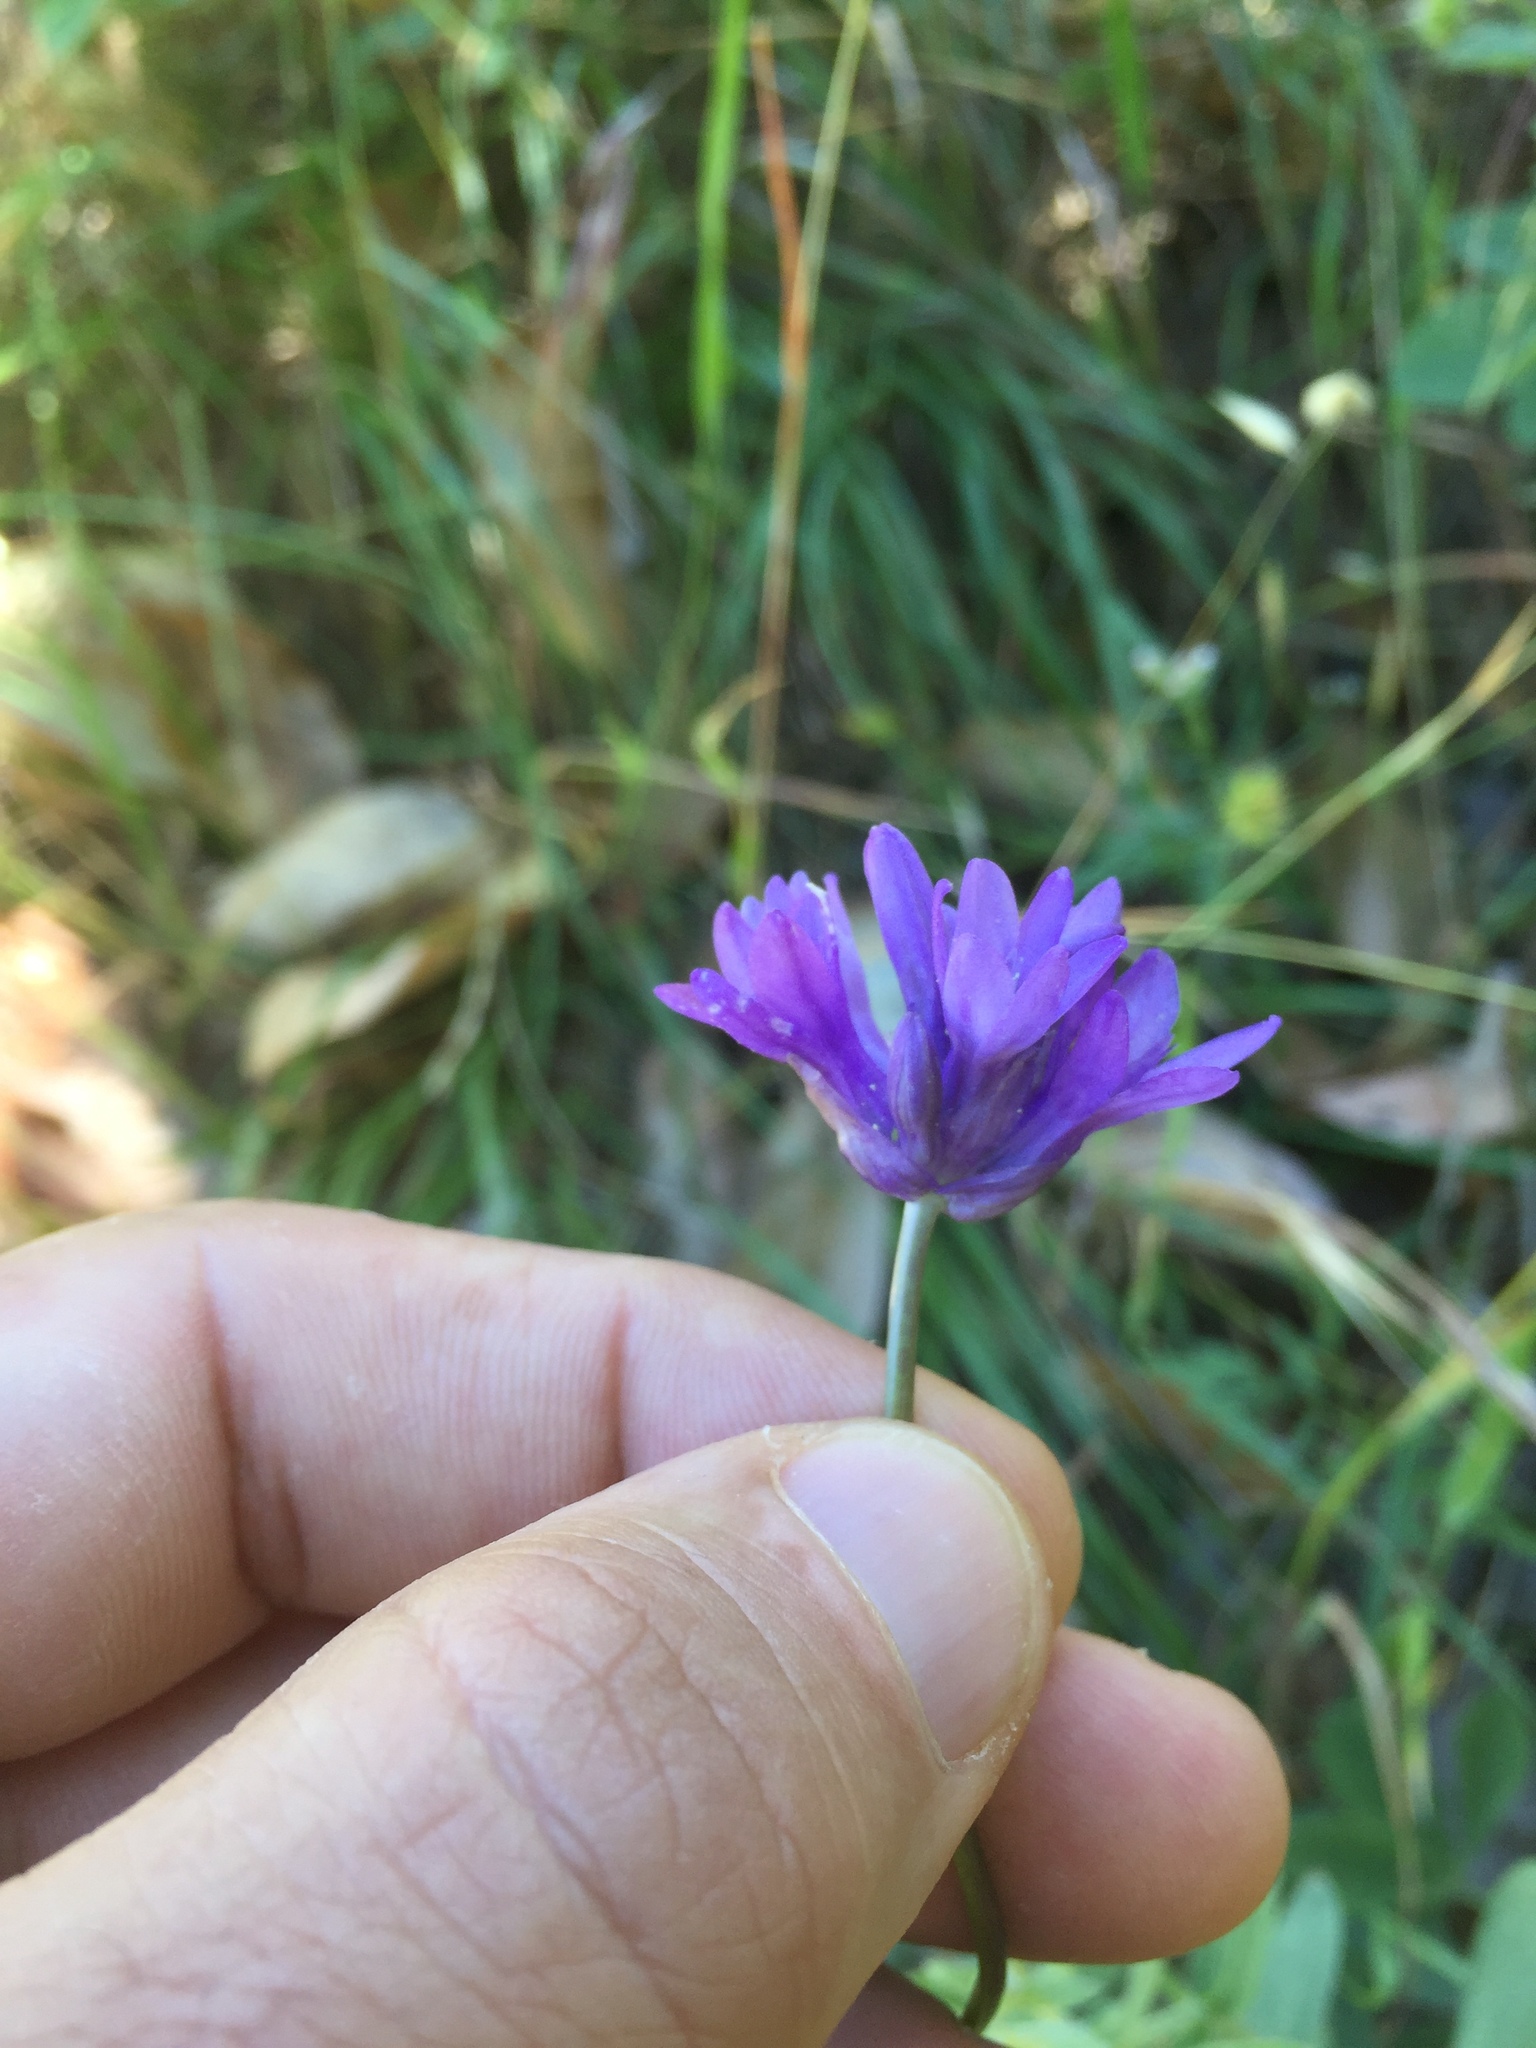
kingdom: Plantae
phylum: Tracheophyta
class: Liliopsida
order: Asparagales
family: Asparagaceae
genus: Dichelostemma
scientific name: Dichelostemma congestum
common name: Fork-tooth ookow
